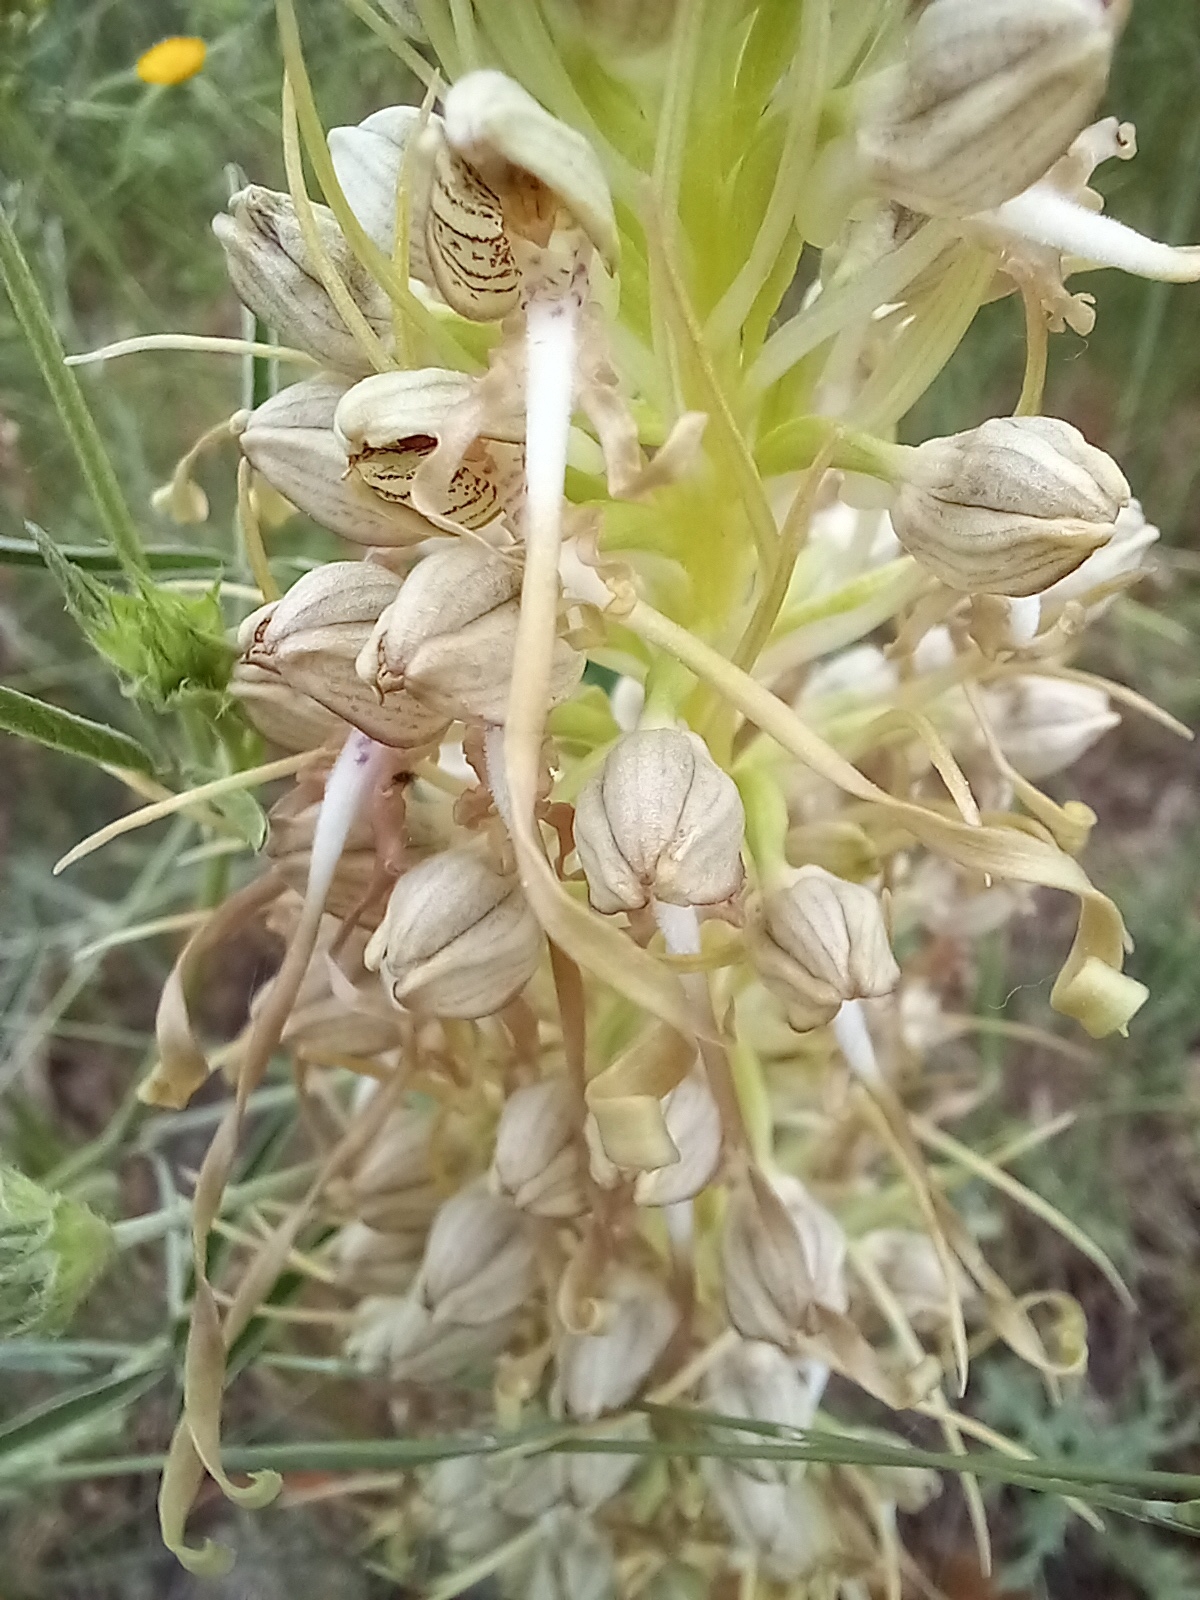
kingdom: Plantae
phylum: Tracheophyta
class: Liliopsida
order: Asparagales
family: Orchidaceae
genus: Himantoglossum
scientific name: Himantoglossum hircinum
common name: Lizard orchid
